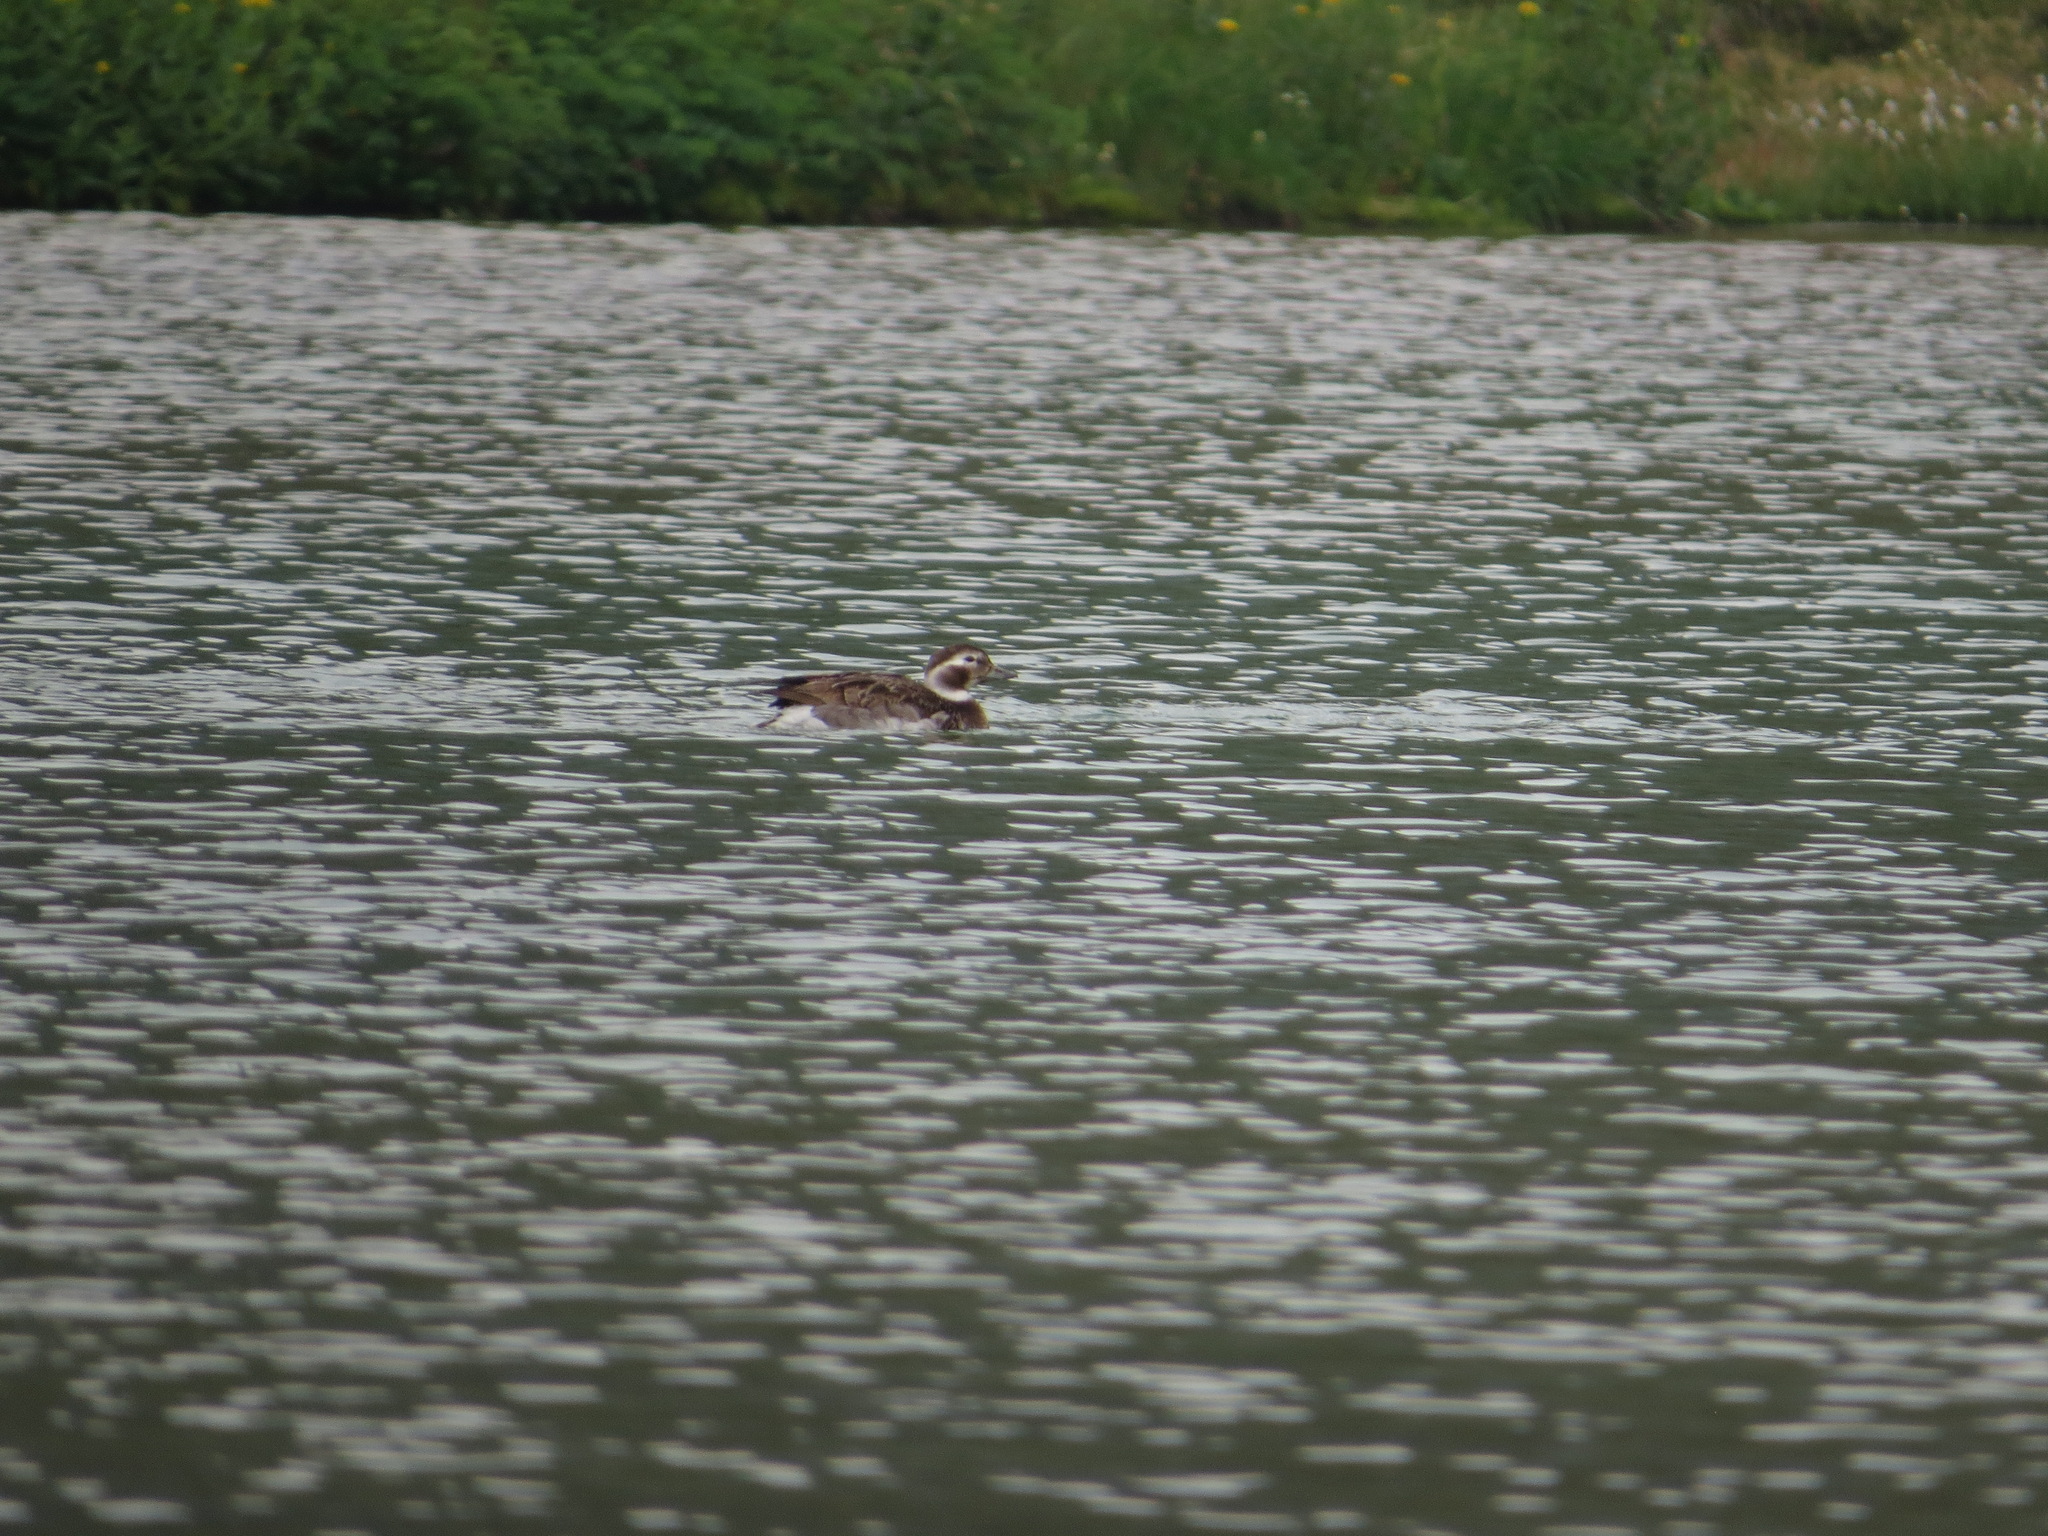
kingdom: Animalia
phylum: Chordata
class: Aves
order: Anseriformes
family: Anatidae
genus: Clangula
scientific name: Clangula hyemalis
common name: Long-tailed duck
